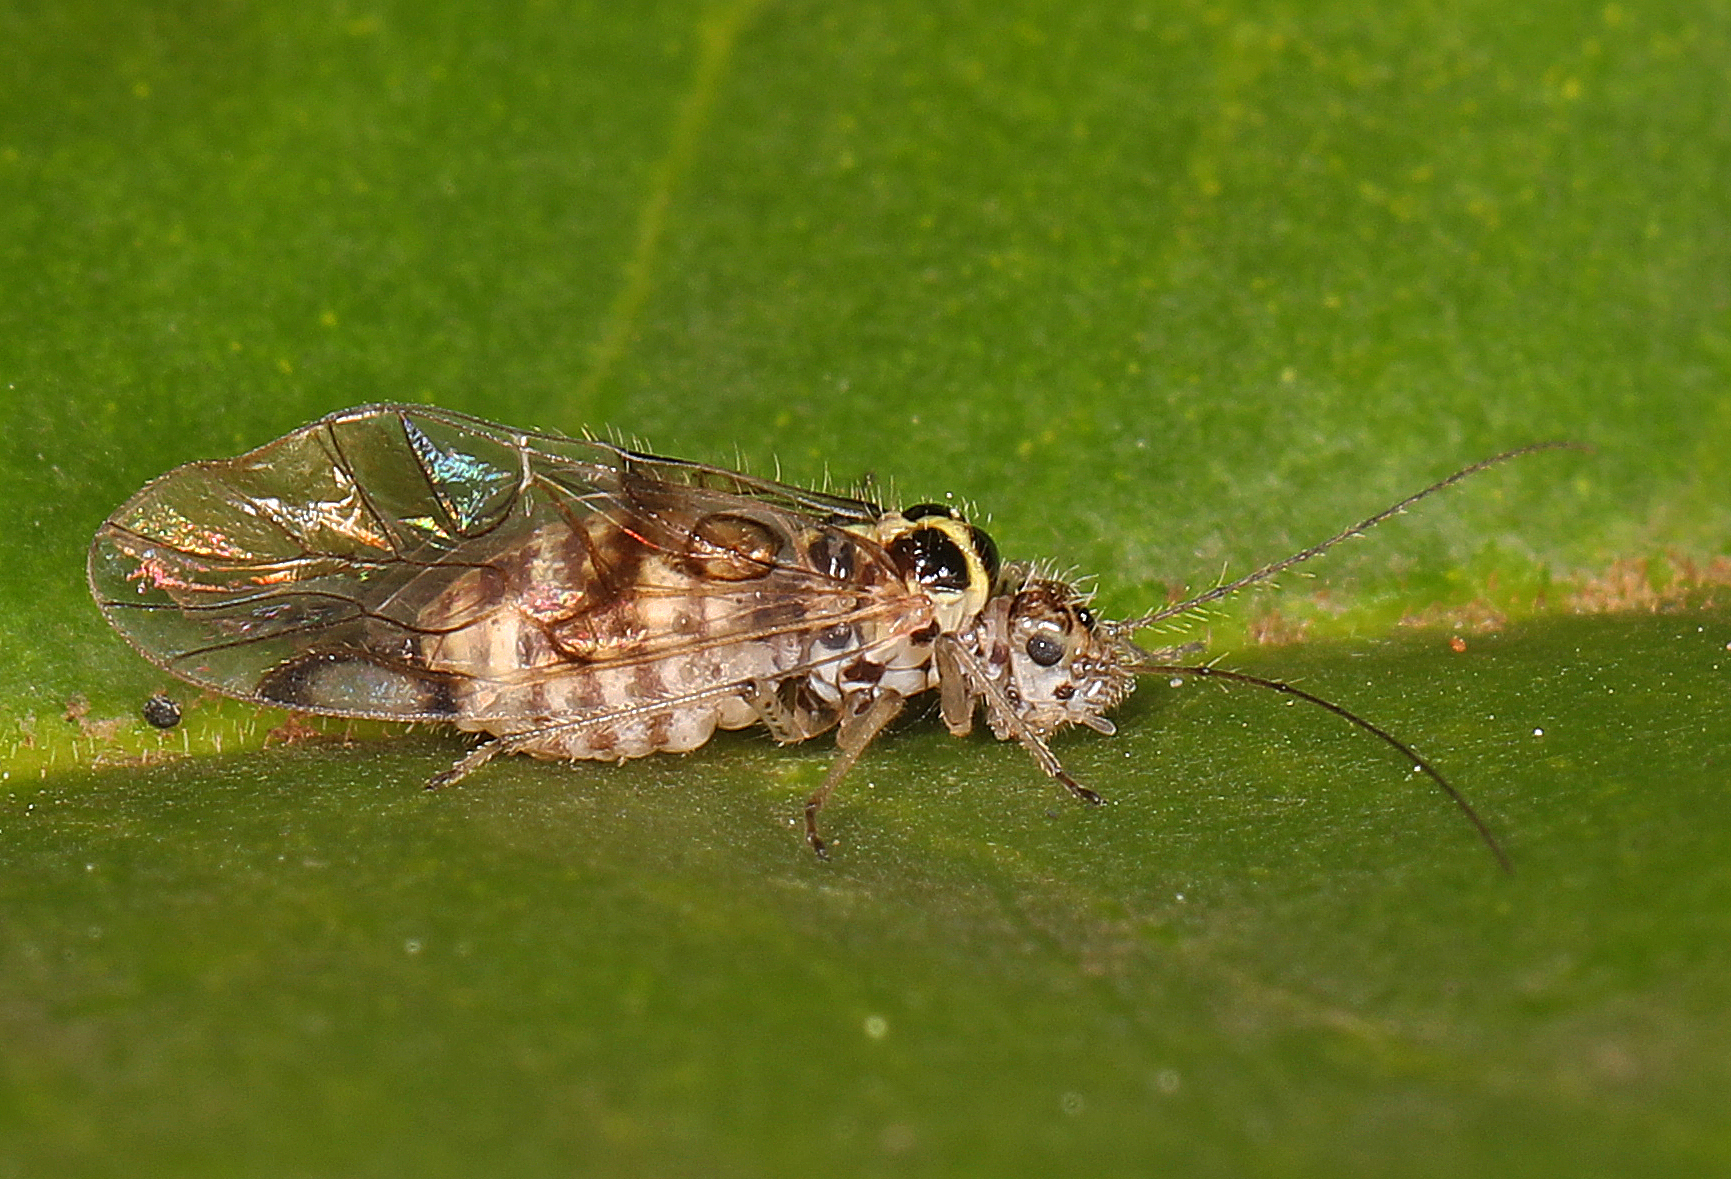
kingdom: Animalia
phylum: Arthropoda
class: Insecta
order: Psocodea
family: Dasydemellidae
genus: Teliapsocus
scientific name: Teliapsocus conterminus
